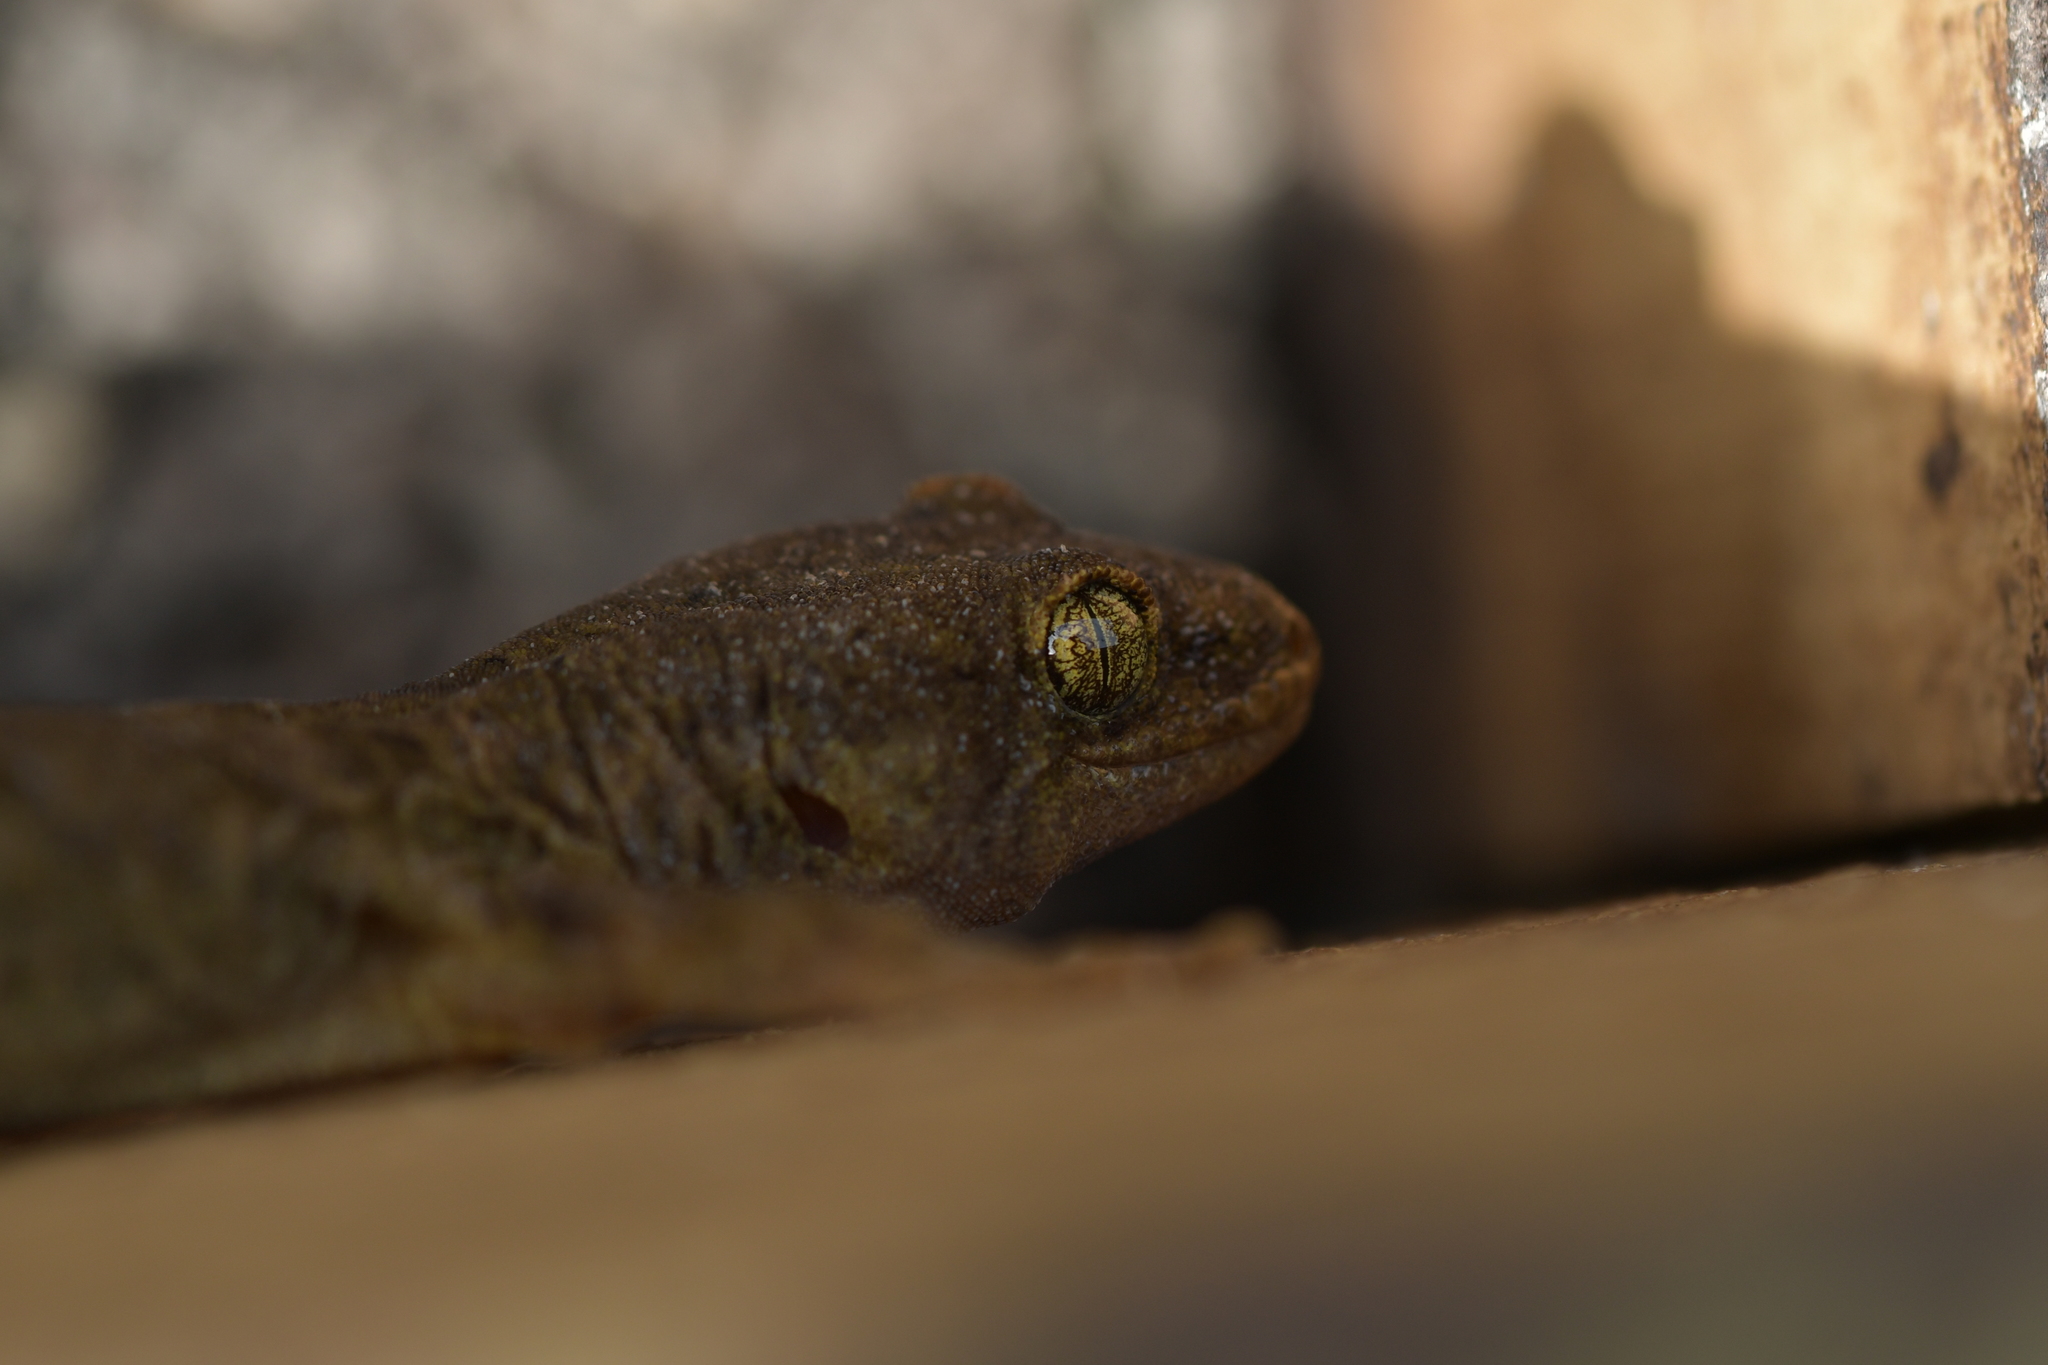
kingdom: Animalia
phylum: Chordata
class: Squamata
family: Diplodactylidae
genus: Woodworthia
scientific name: Woodworthia maculata
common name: Raukawa gecko
